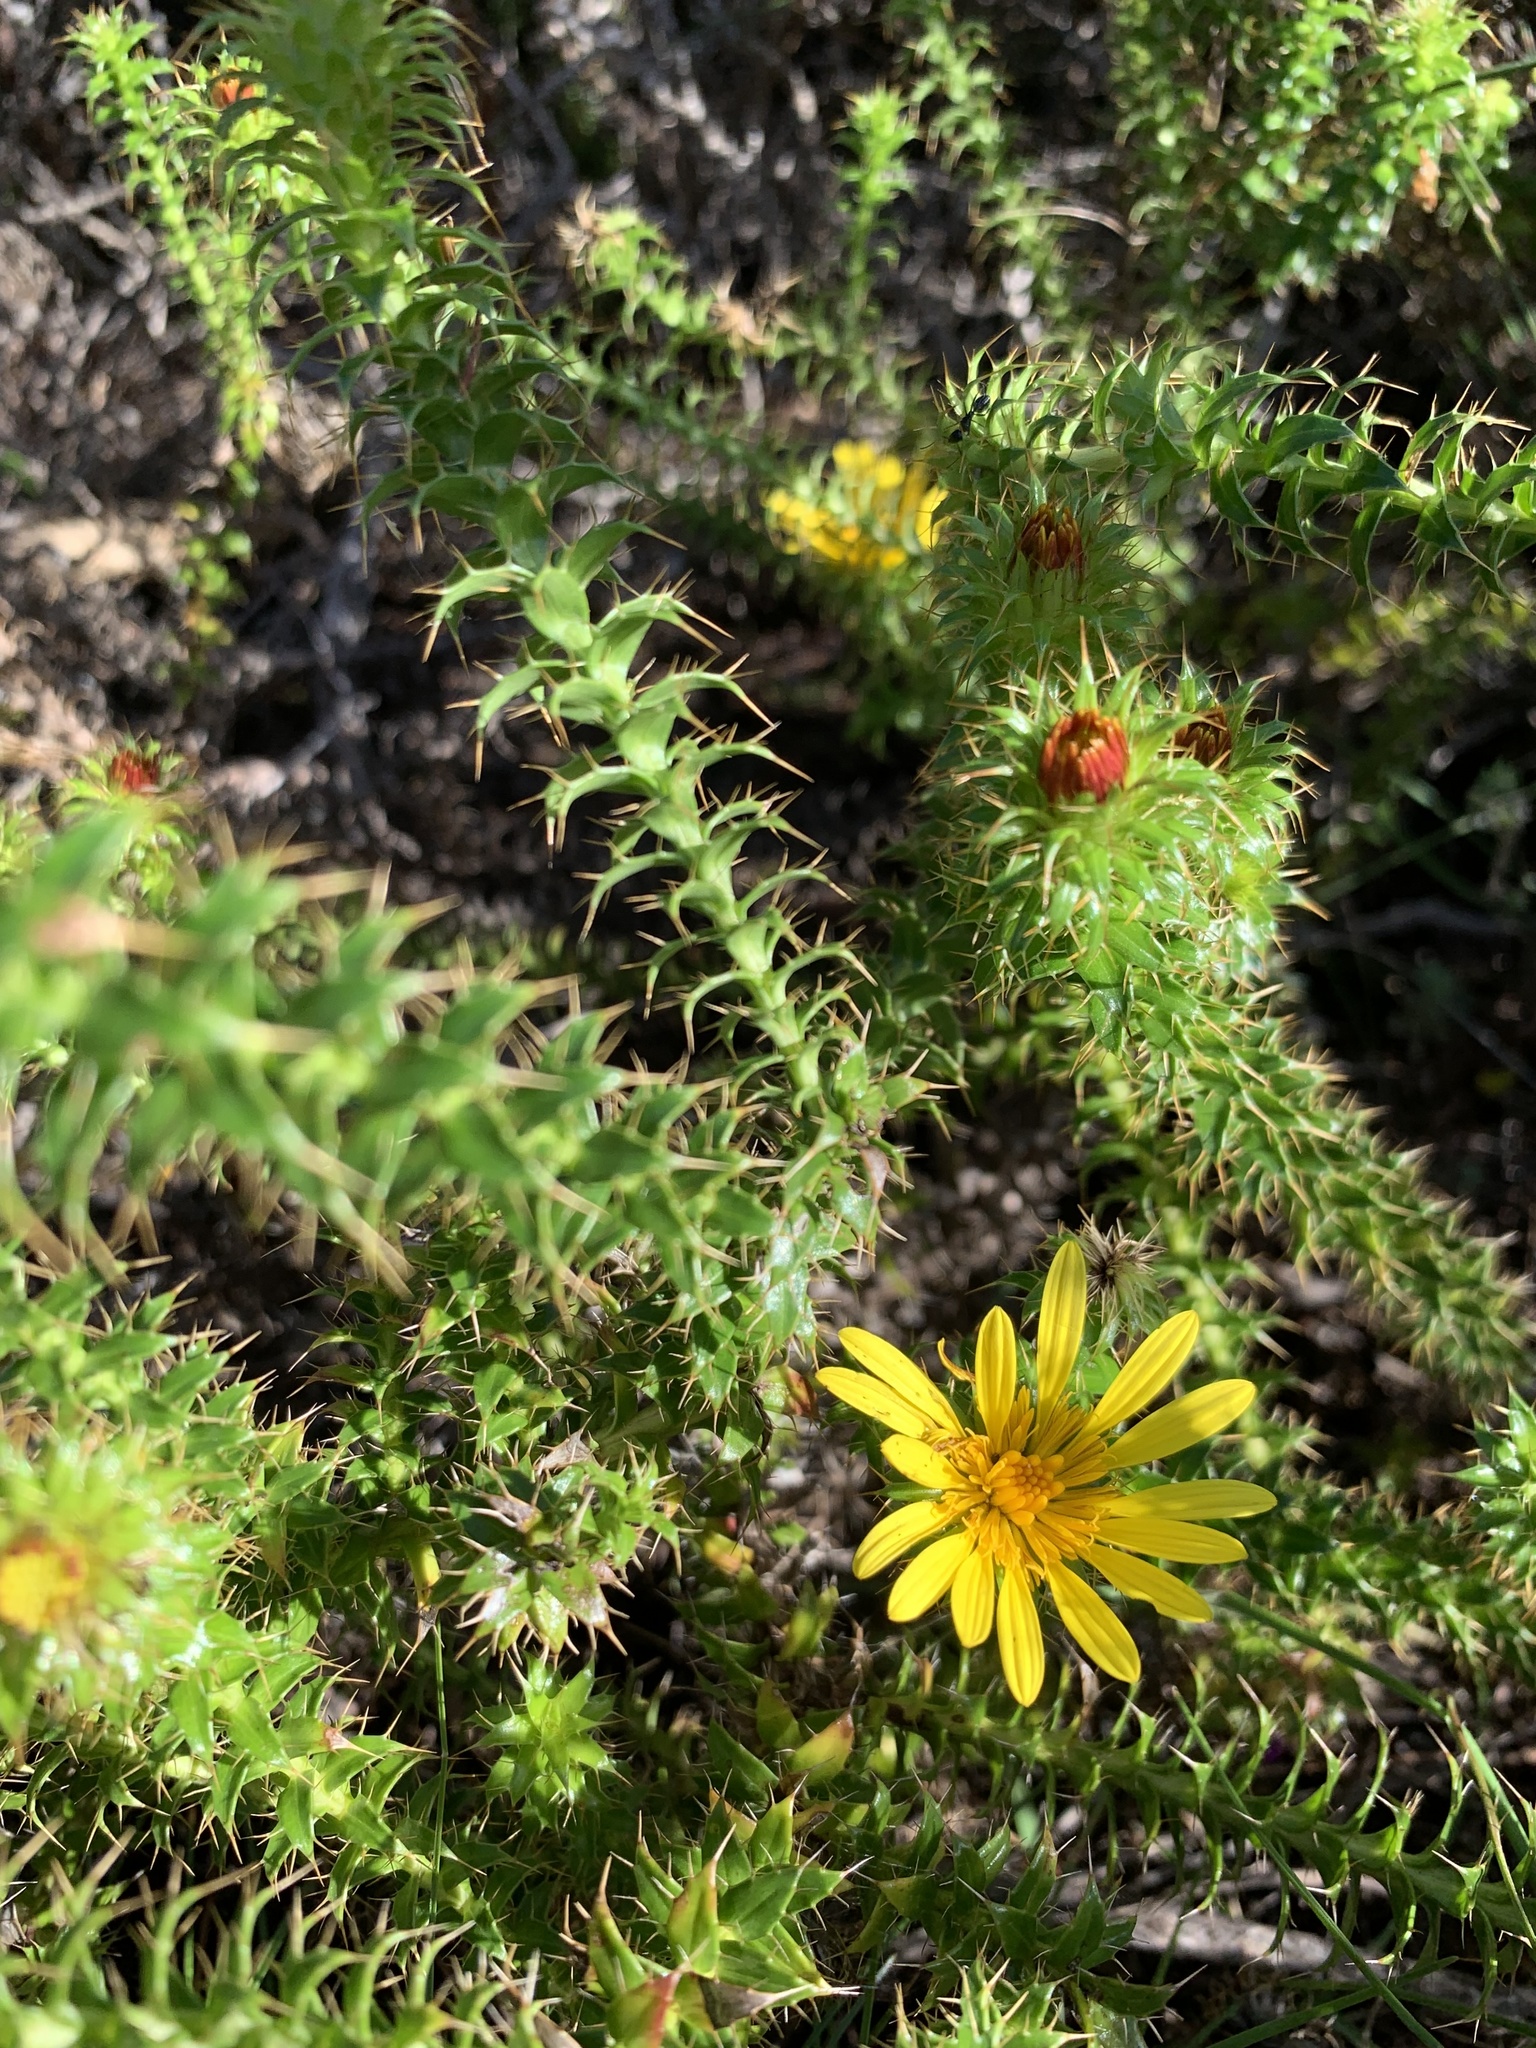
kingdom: Plantae
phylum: Tracheophyta
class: Magnoliopsida
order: Asterales
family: Asteraceae
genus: Cullumia
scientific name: Cullumia setosa
